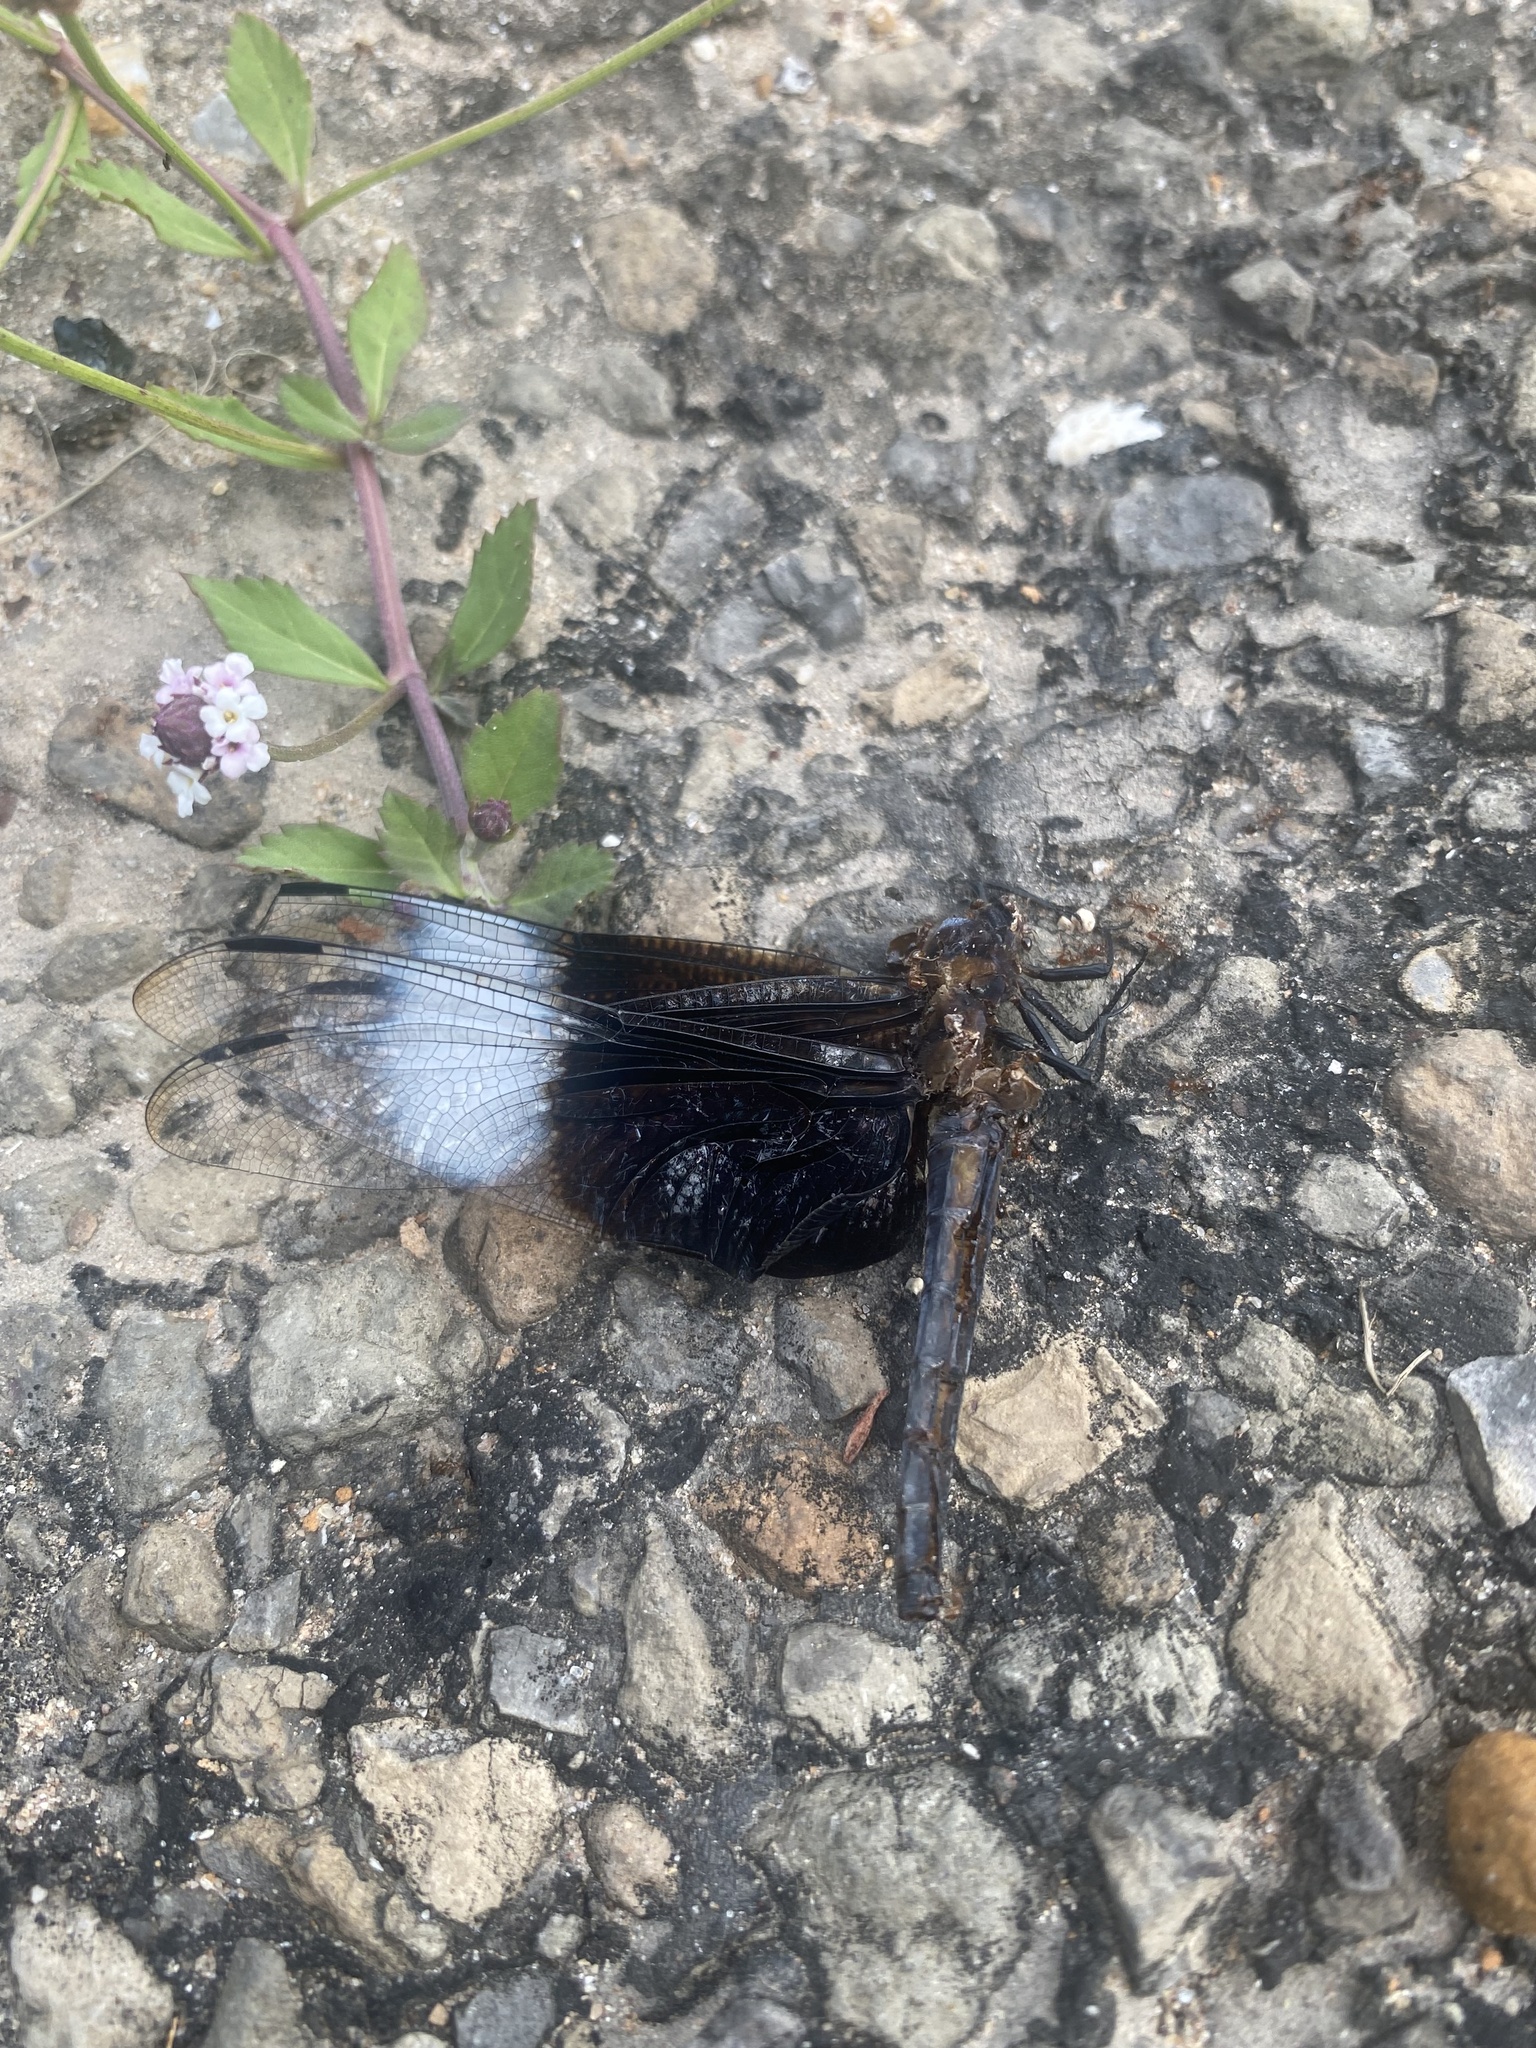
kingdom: Animalia
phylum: Arthropoda
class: Insecta
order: Odonata
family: Libellulidae
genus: Libellula
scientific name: Libellula luctuosa
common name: Widow skimmer
